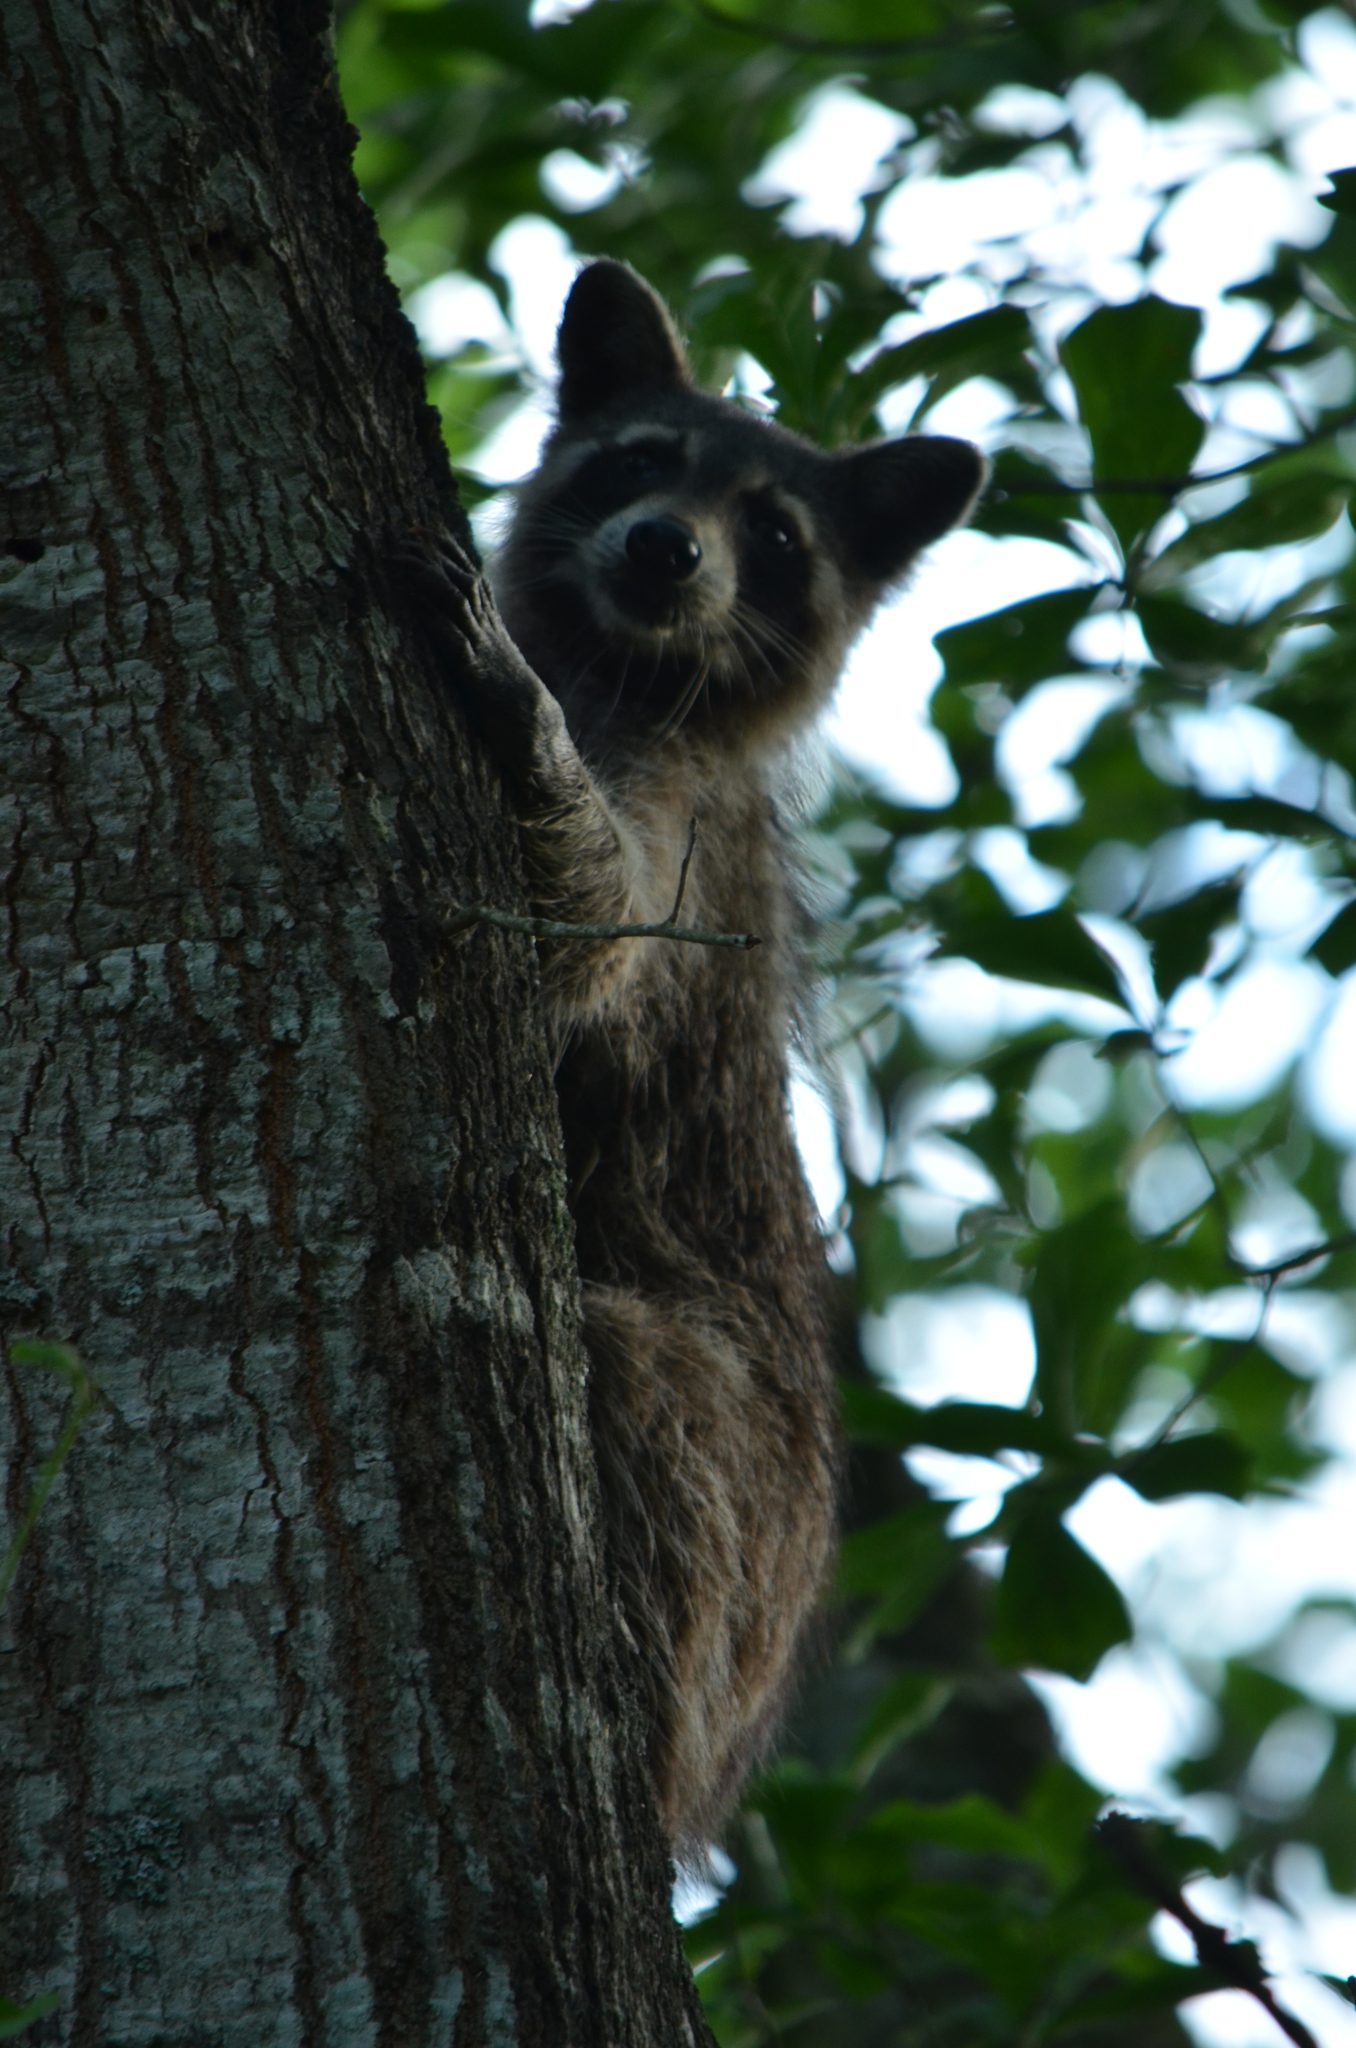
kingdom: Animalia
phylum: Chordata
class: Mammalia
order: Carnivora
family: Procyonidae
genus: Procyon
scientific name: Procyon lotor
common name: Raccoon
